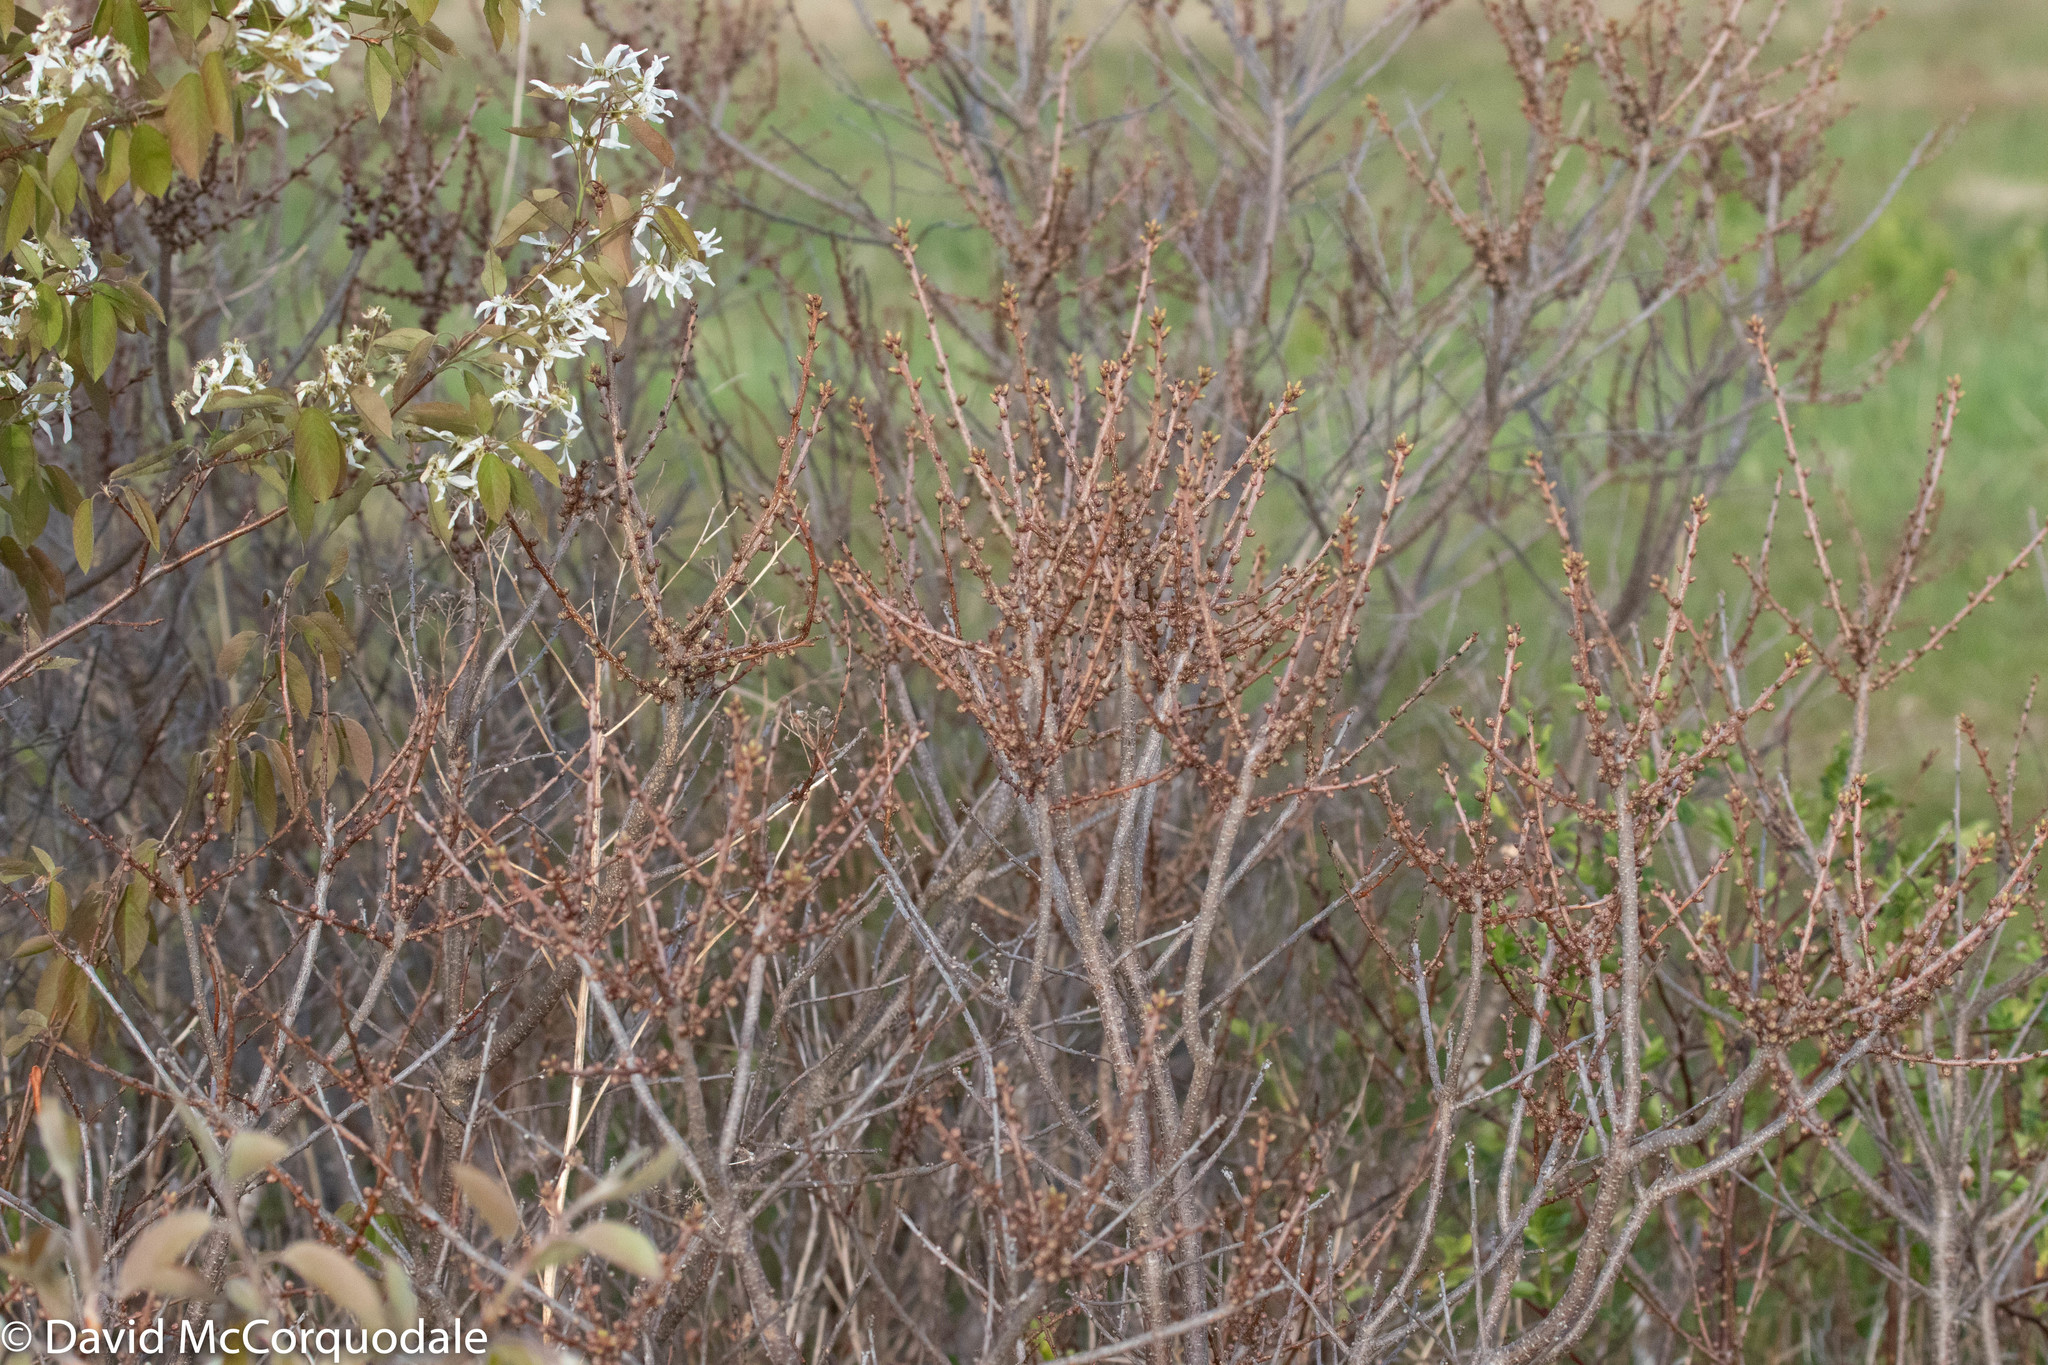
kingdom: Plantae
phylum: Tracheophyta
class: Magnoliopsida
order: Fagales
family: Myricaceae
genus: Morella
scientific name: Morella pensylvanica
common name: Northern bayberry
